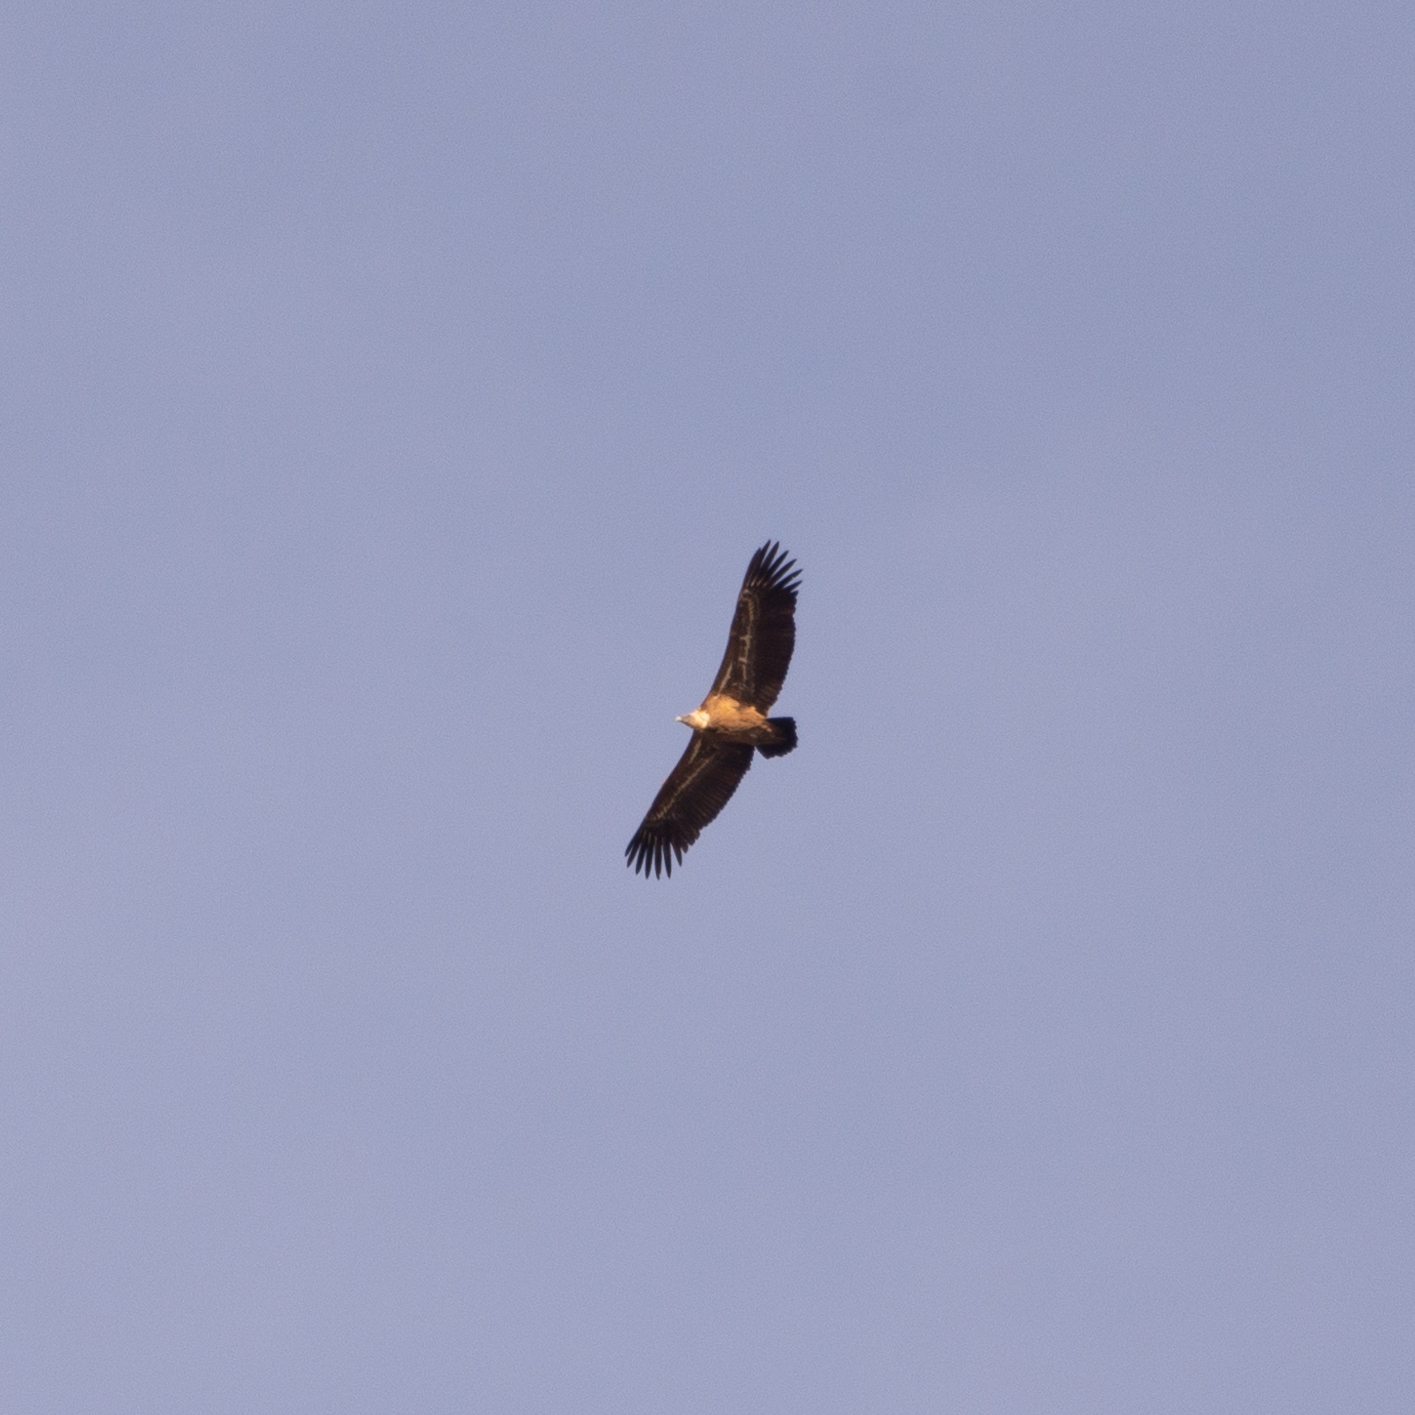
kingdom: Animalia
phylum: Chordata
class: Aves
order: Accipitriformes
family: Accipitridae
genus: Gyps
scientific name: Gyps fulvus
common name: Griffon vulture
